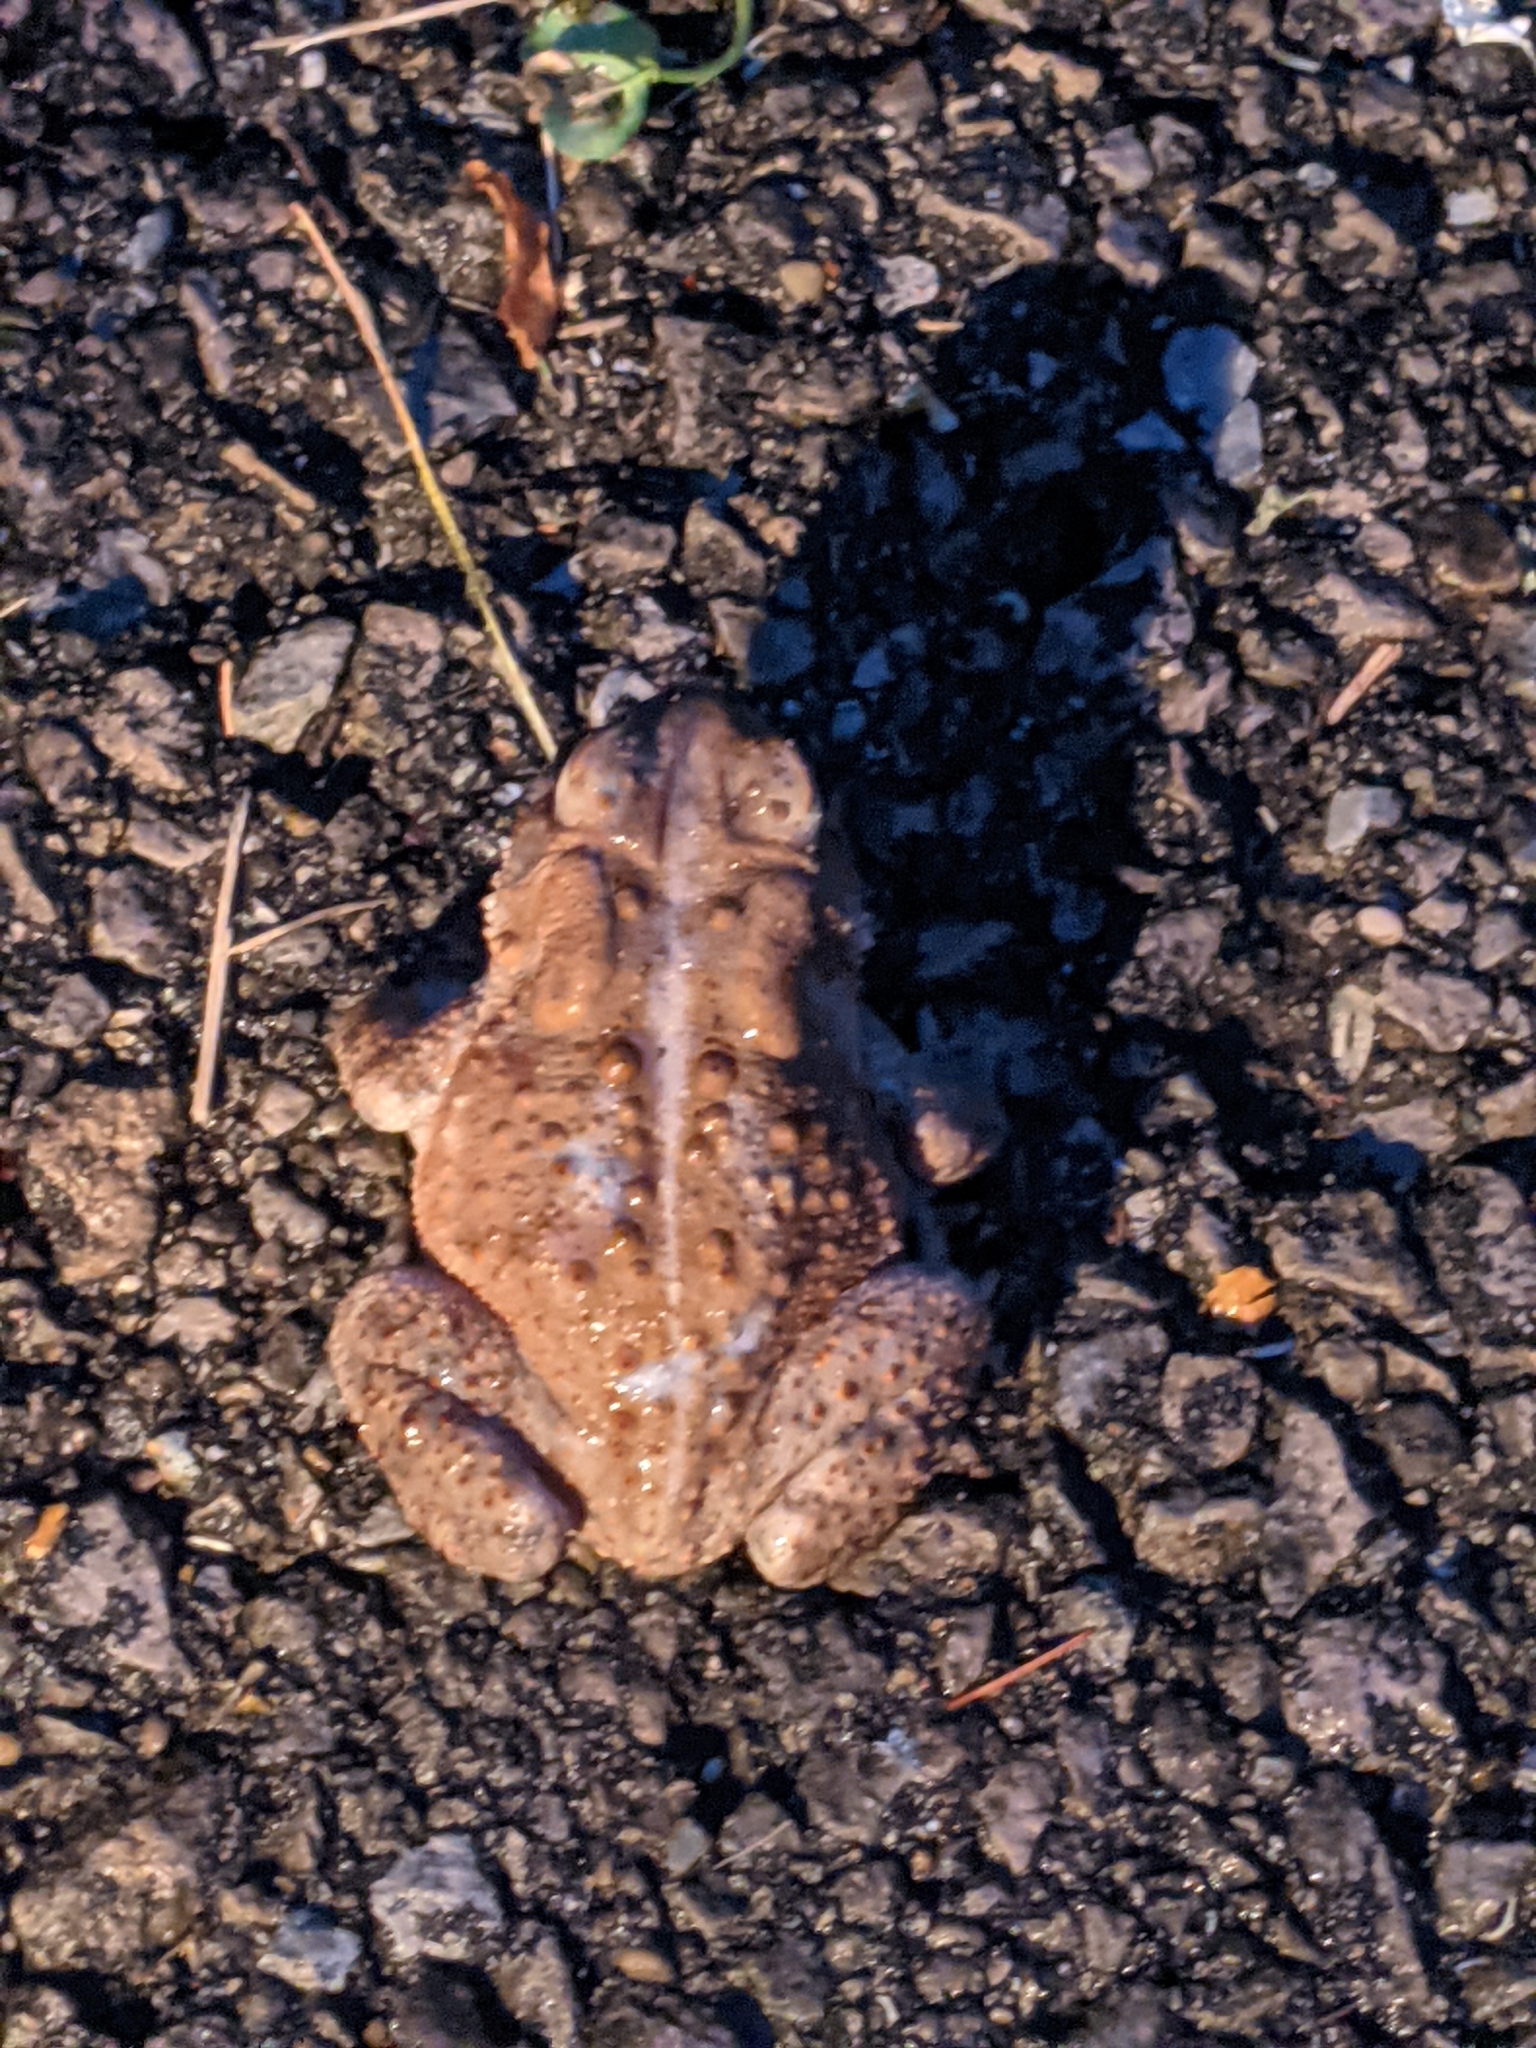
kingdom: Animalia
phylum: Chordata
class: Amphibia
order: Anura
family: Bufonidae
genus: Anaxyrus
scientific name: Anaxyrus americanus
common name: American toad
